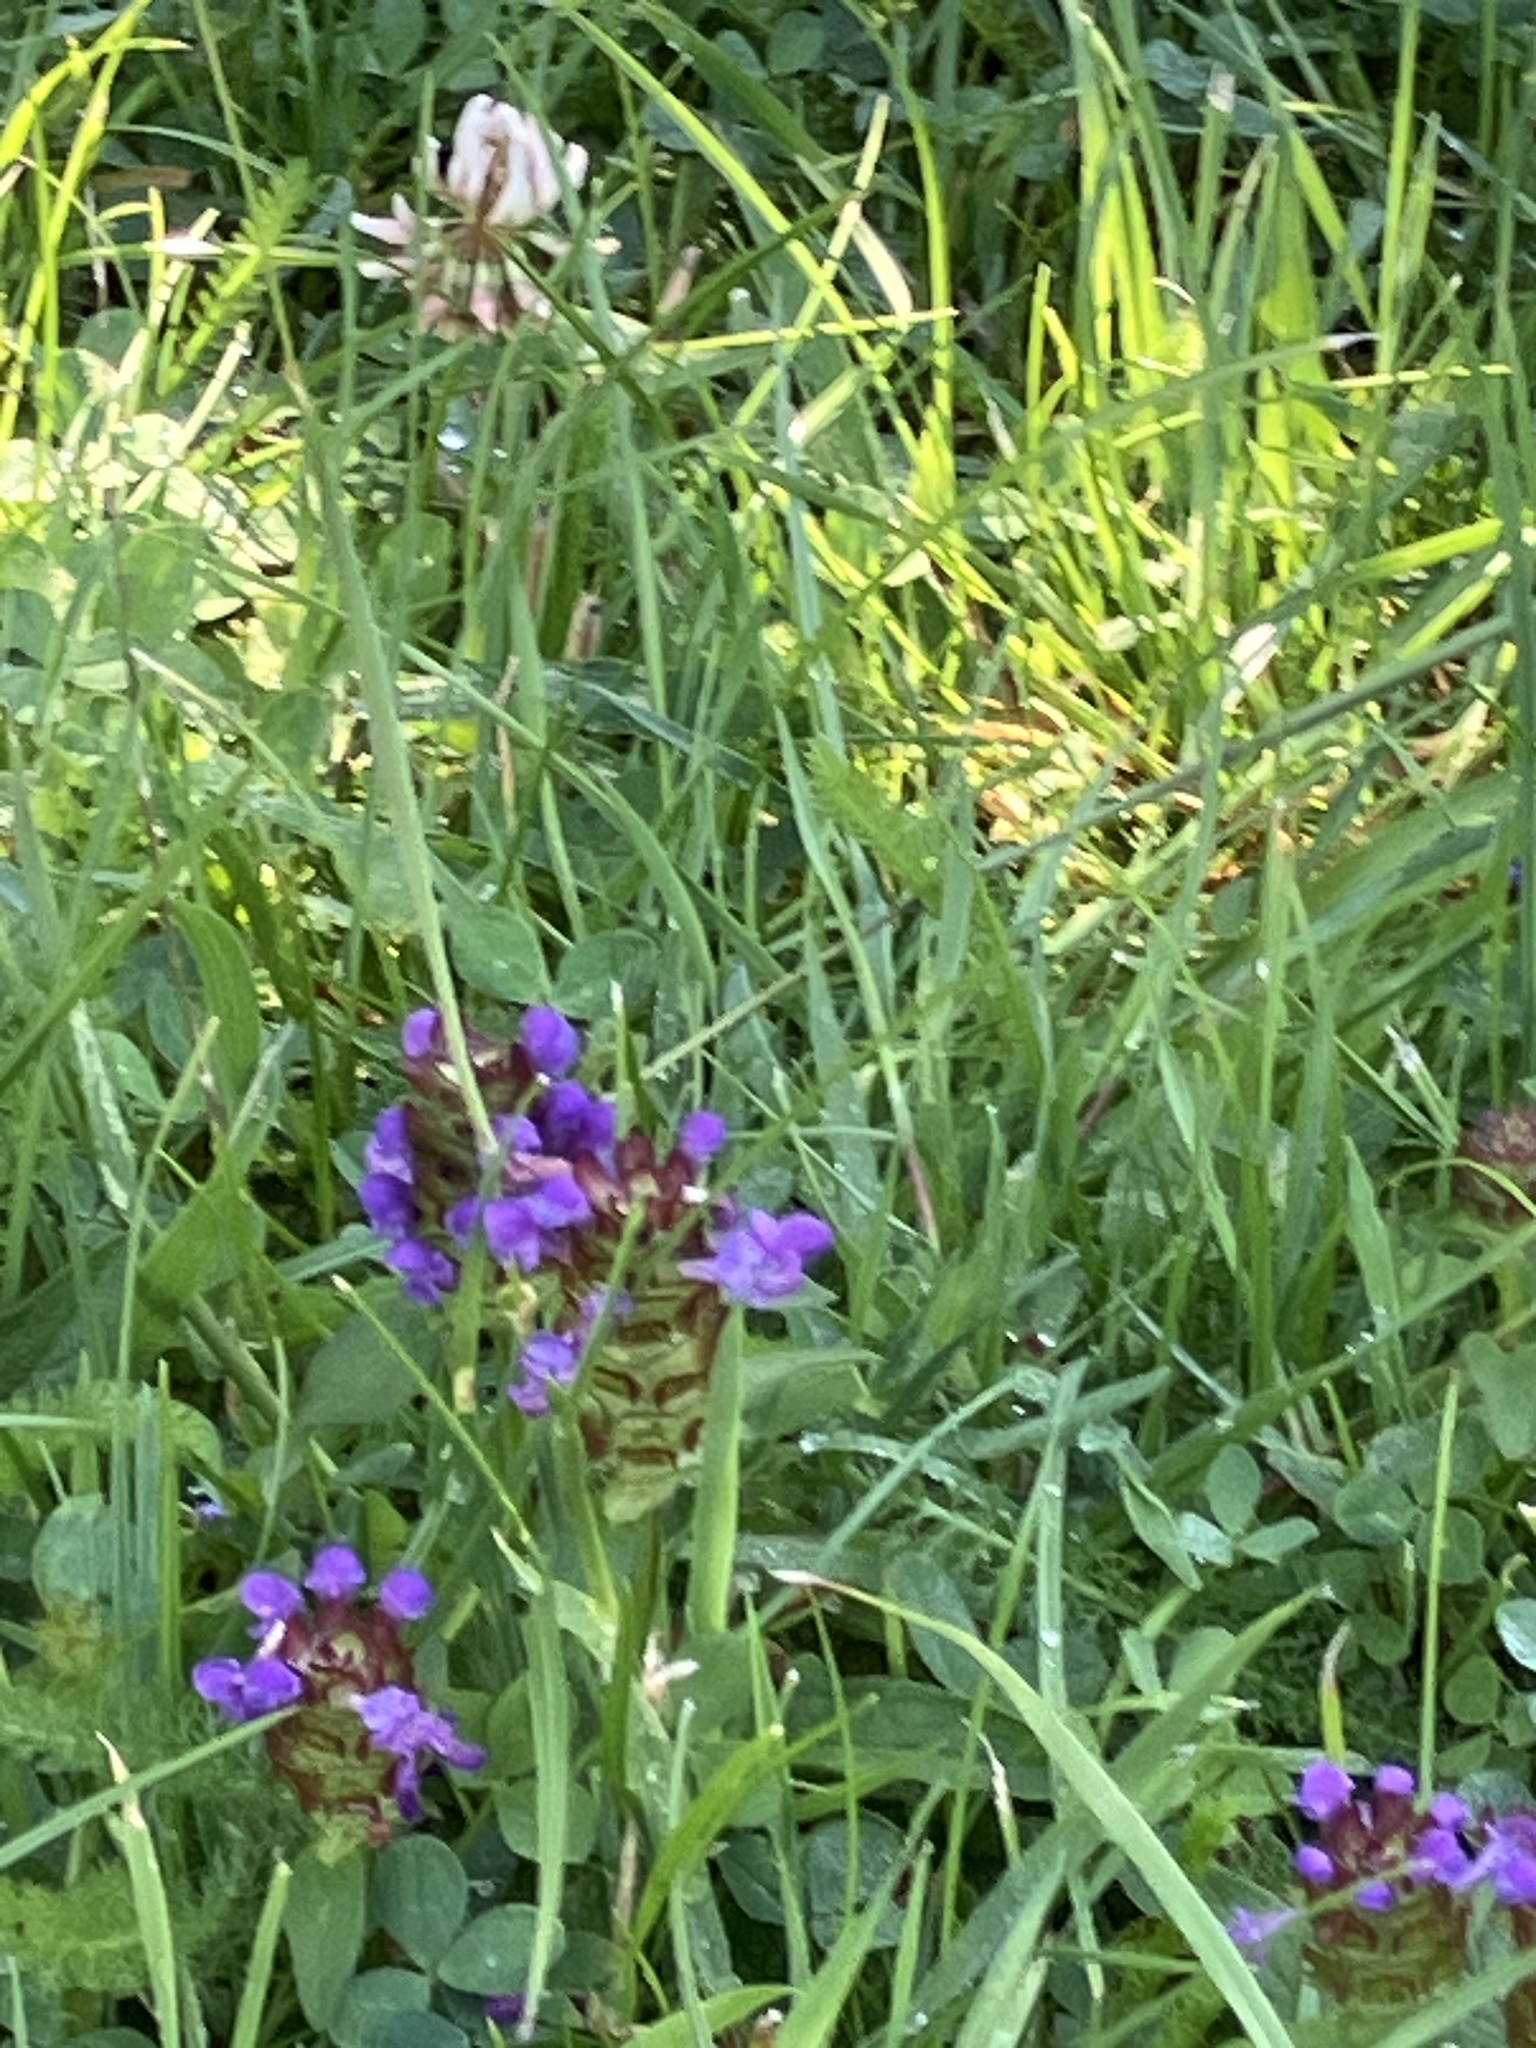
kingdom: Plantae
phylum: Tracheophyta
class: Magnoliopsida
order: Lamiales
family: Lamiaceae
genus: Prunella
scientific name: Prunella vulgaris
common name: Heal-all
